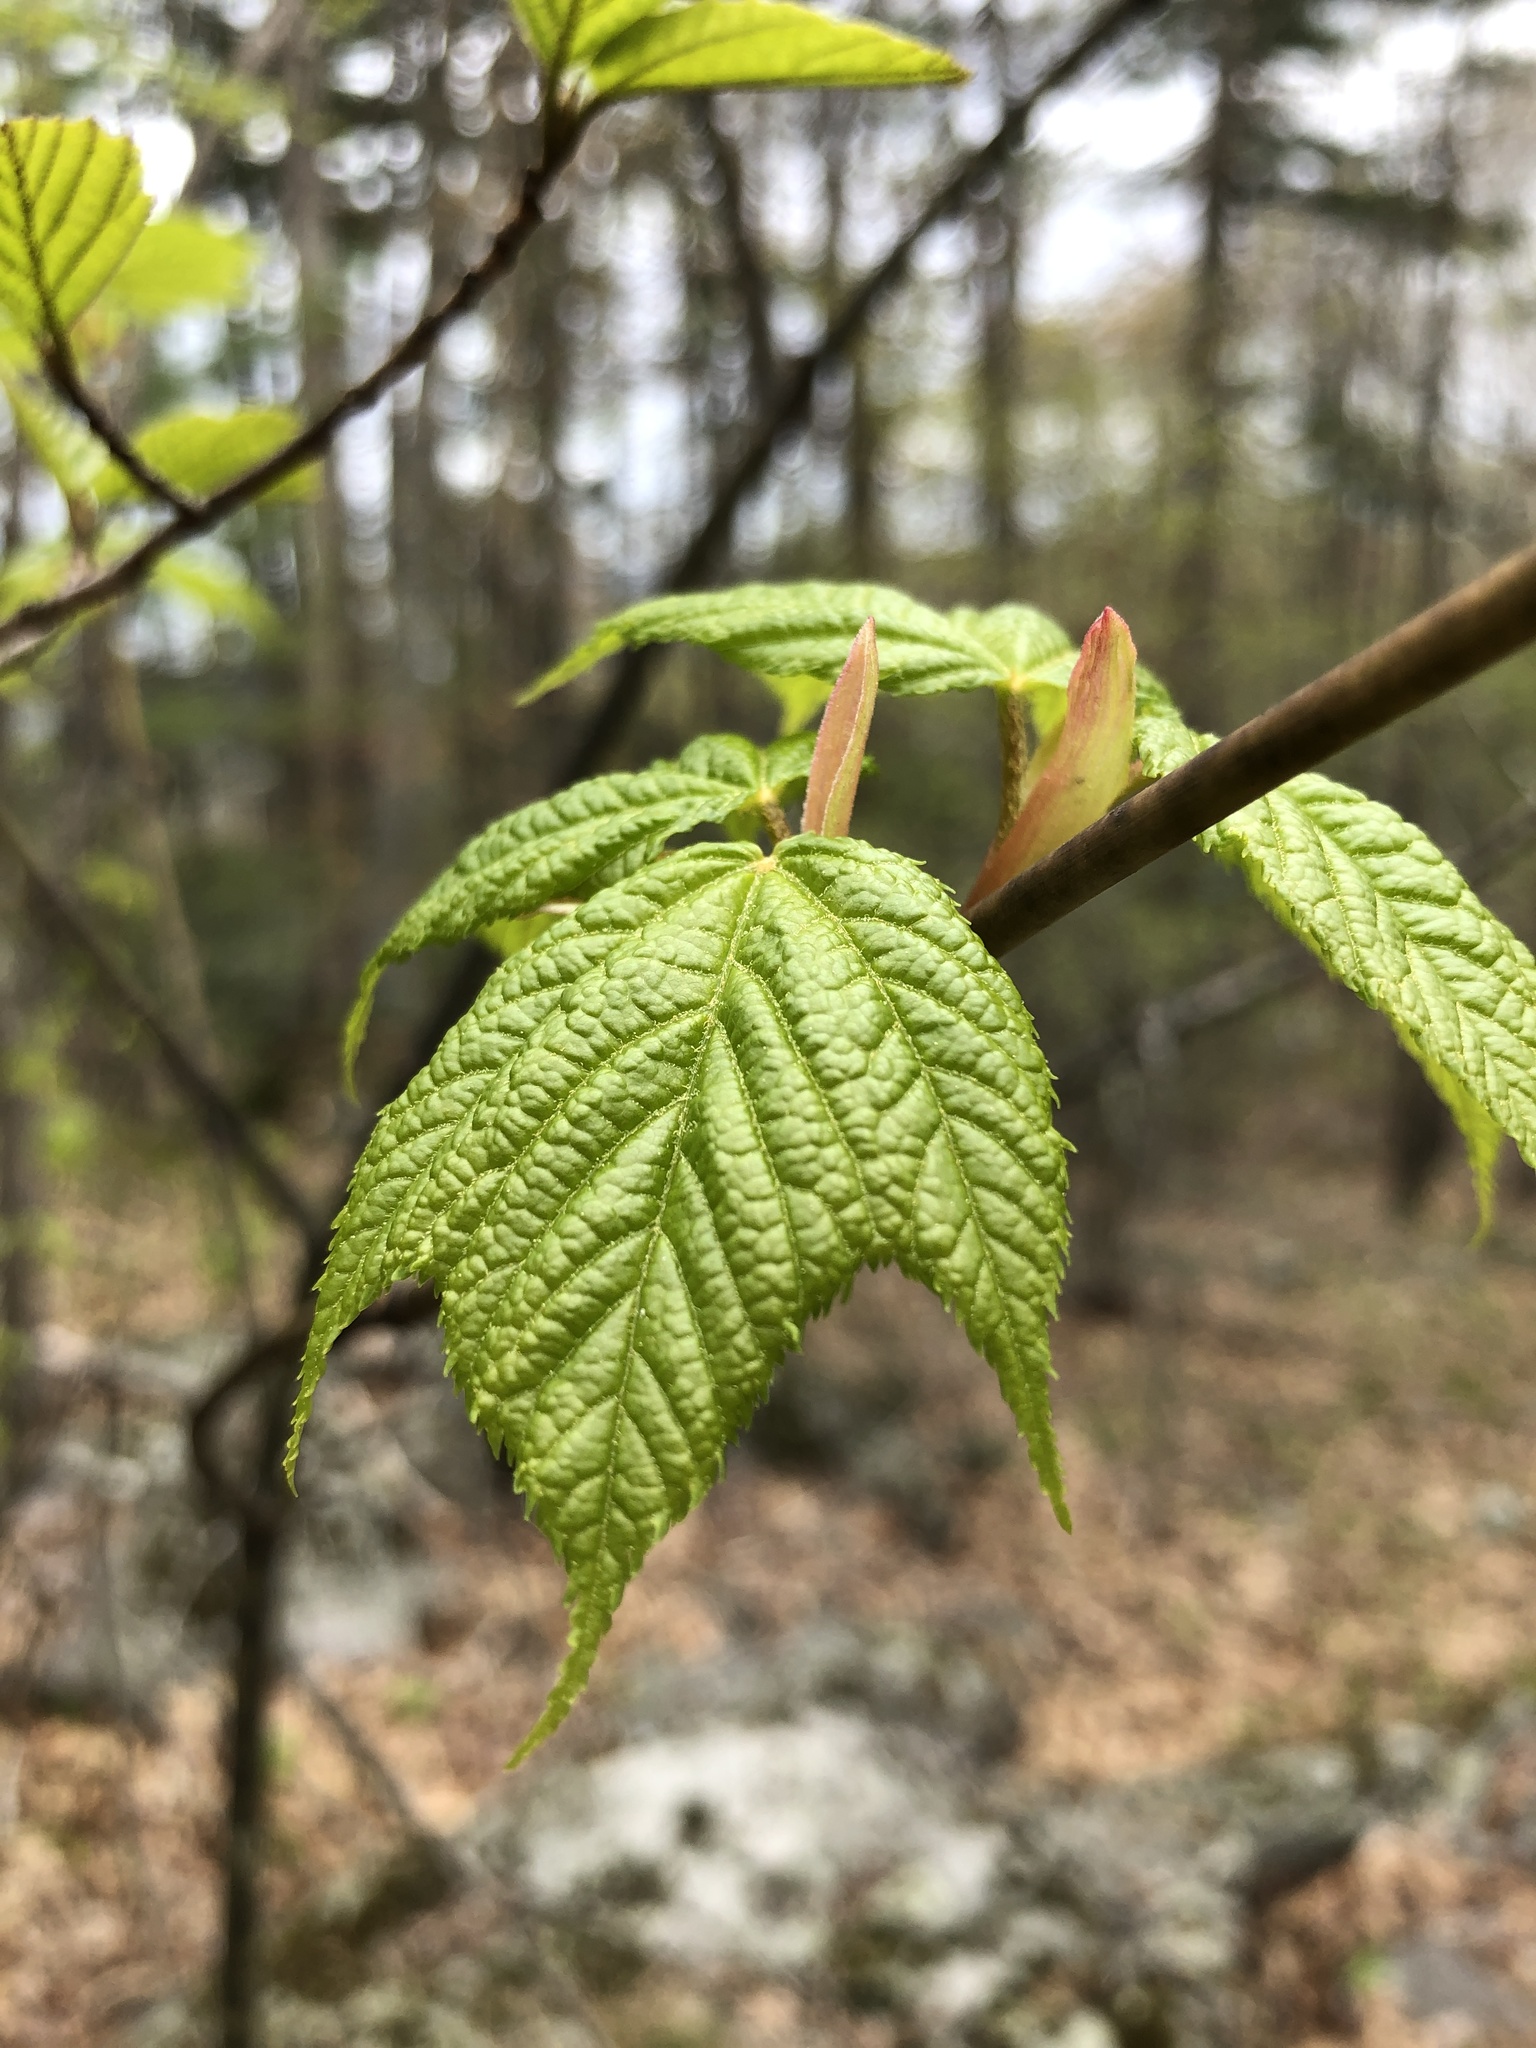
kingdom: Plantae
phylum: Tracheophyta
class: Magnoliopsida
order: Sapindales
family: Sapindaceae
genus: Acer
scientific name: Acer pensylvanicum
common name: Moosewood
